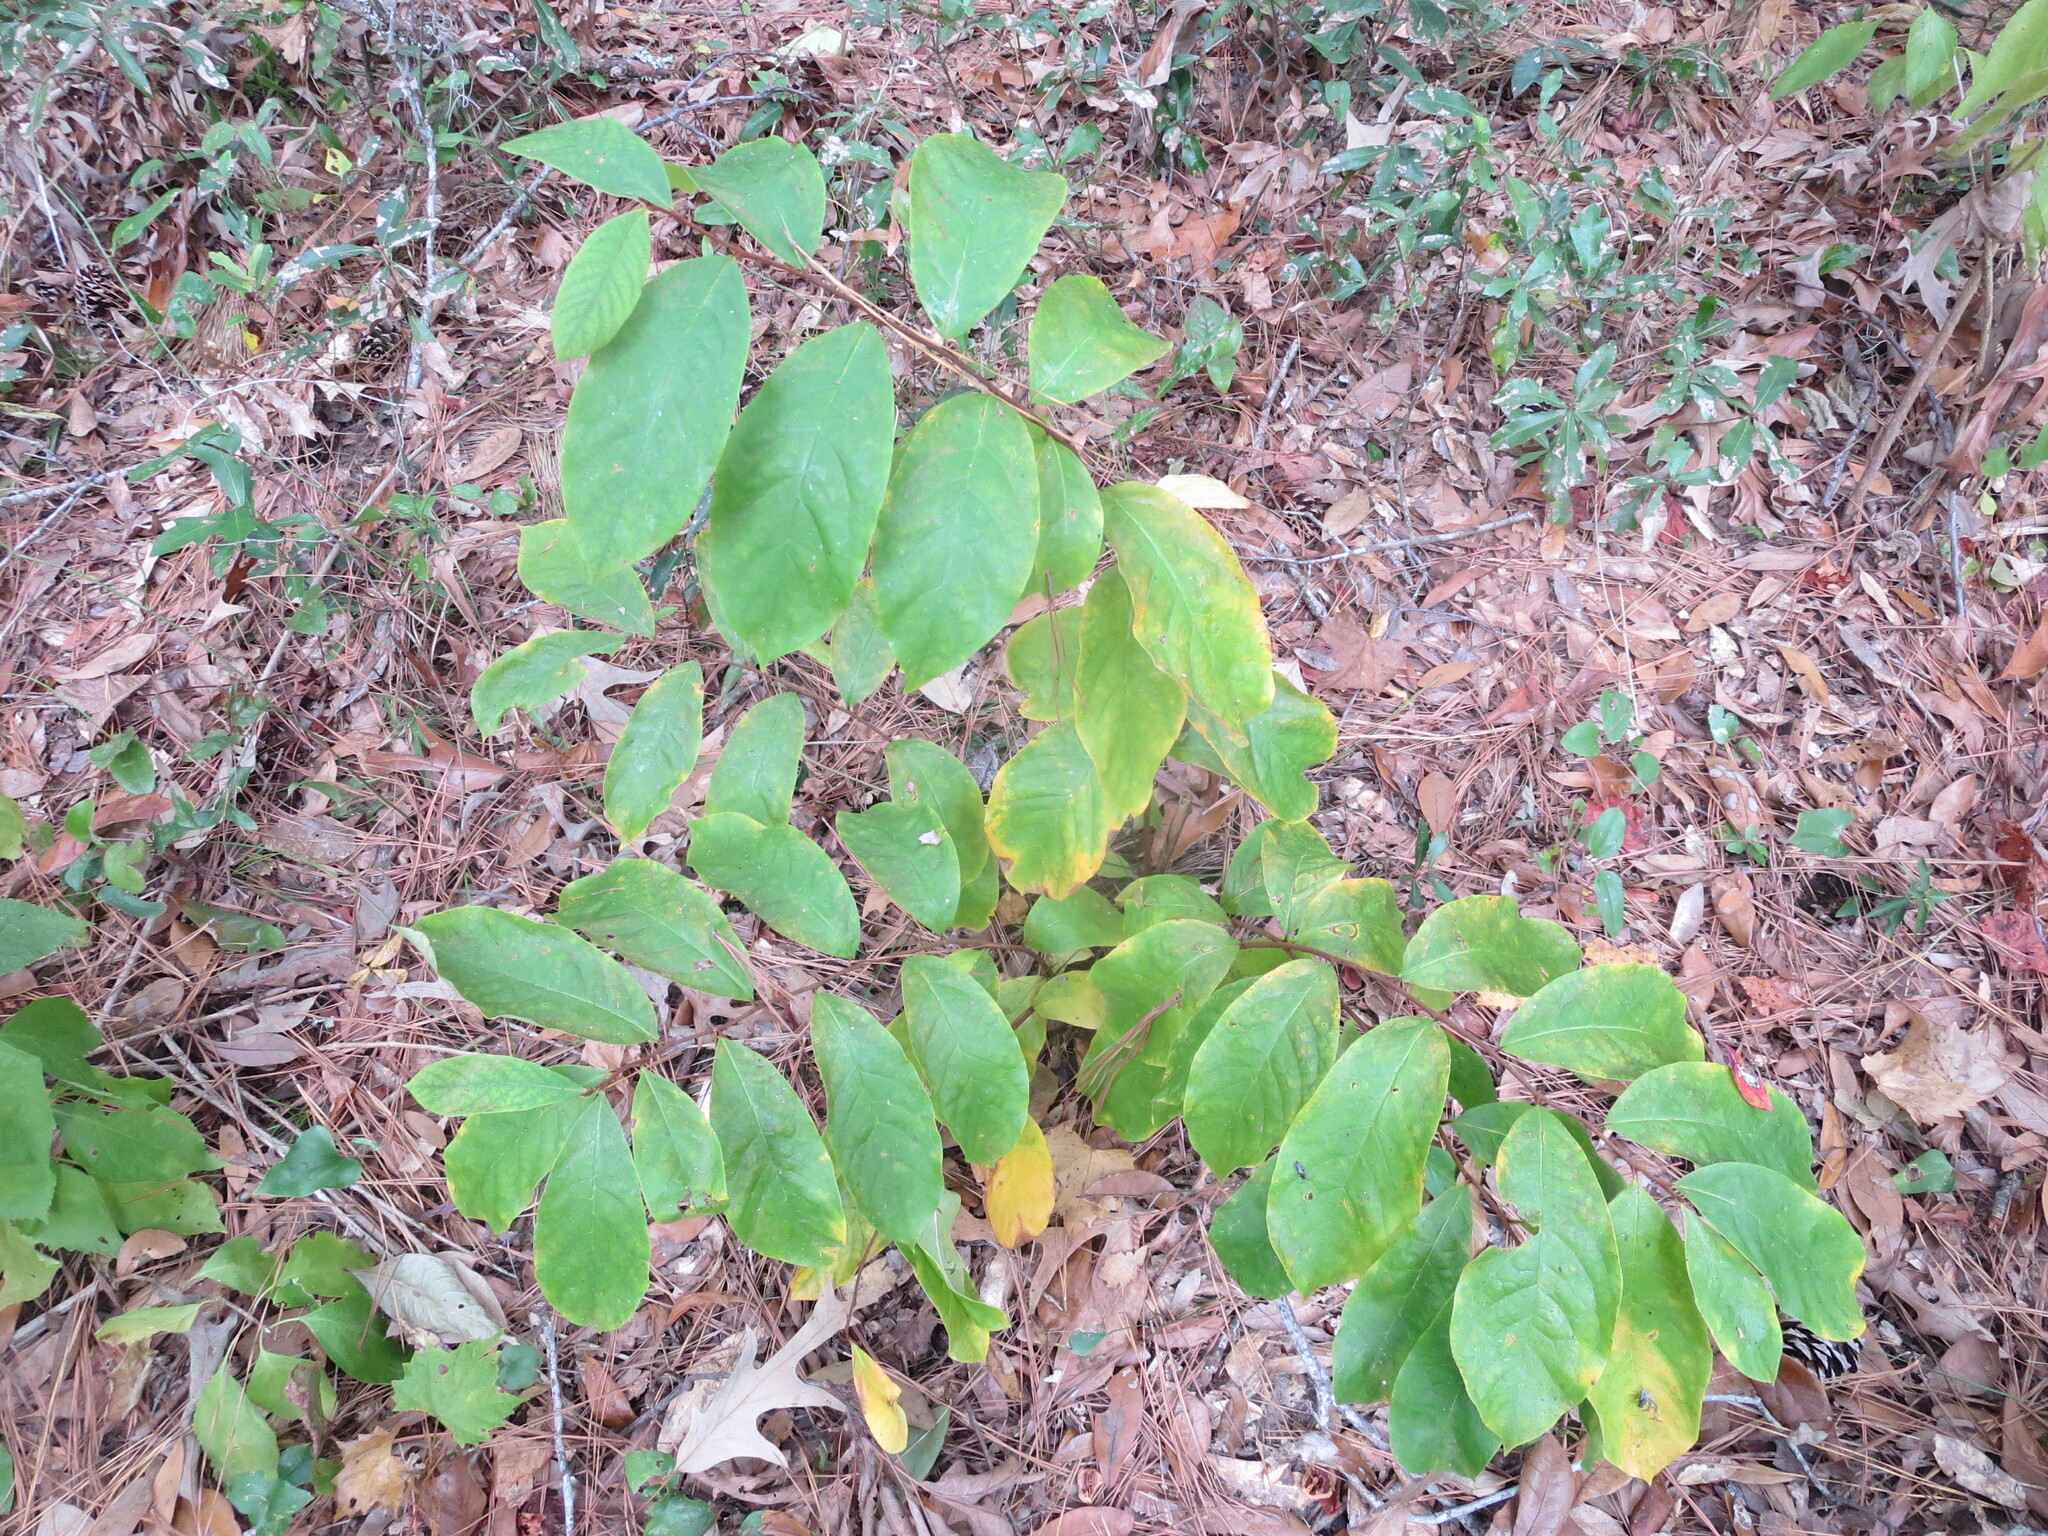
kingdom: Plantae
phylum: Tracheophyta
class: Magnoliopsida
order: Magnoliales
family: Annonaceae
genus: Asimina
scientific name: Asimina parviflora
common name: Dwarf pawpaw
